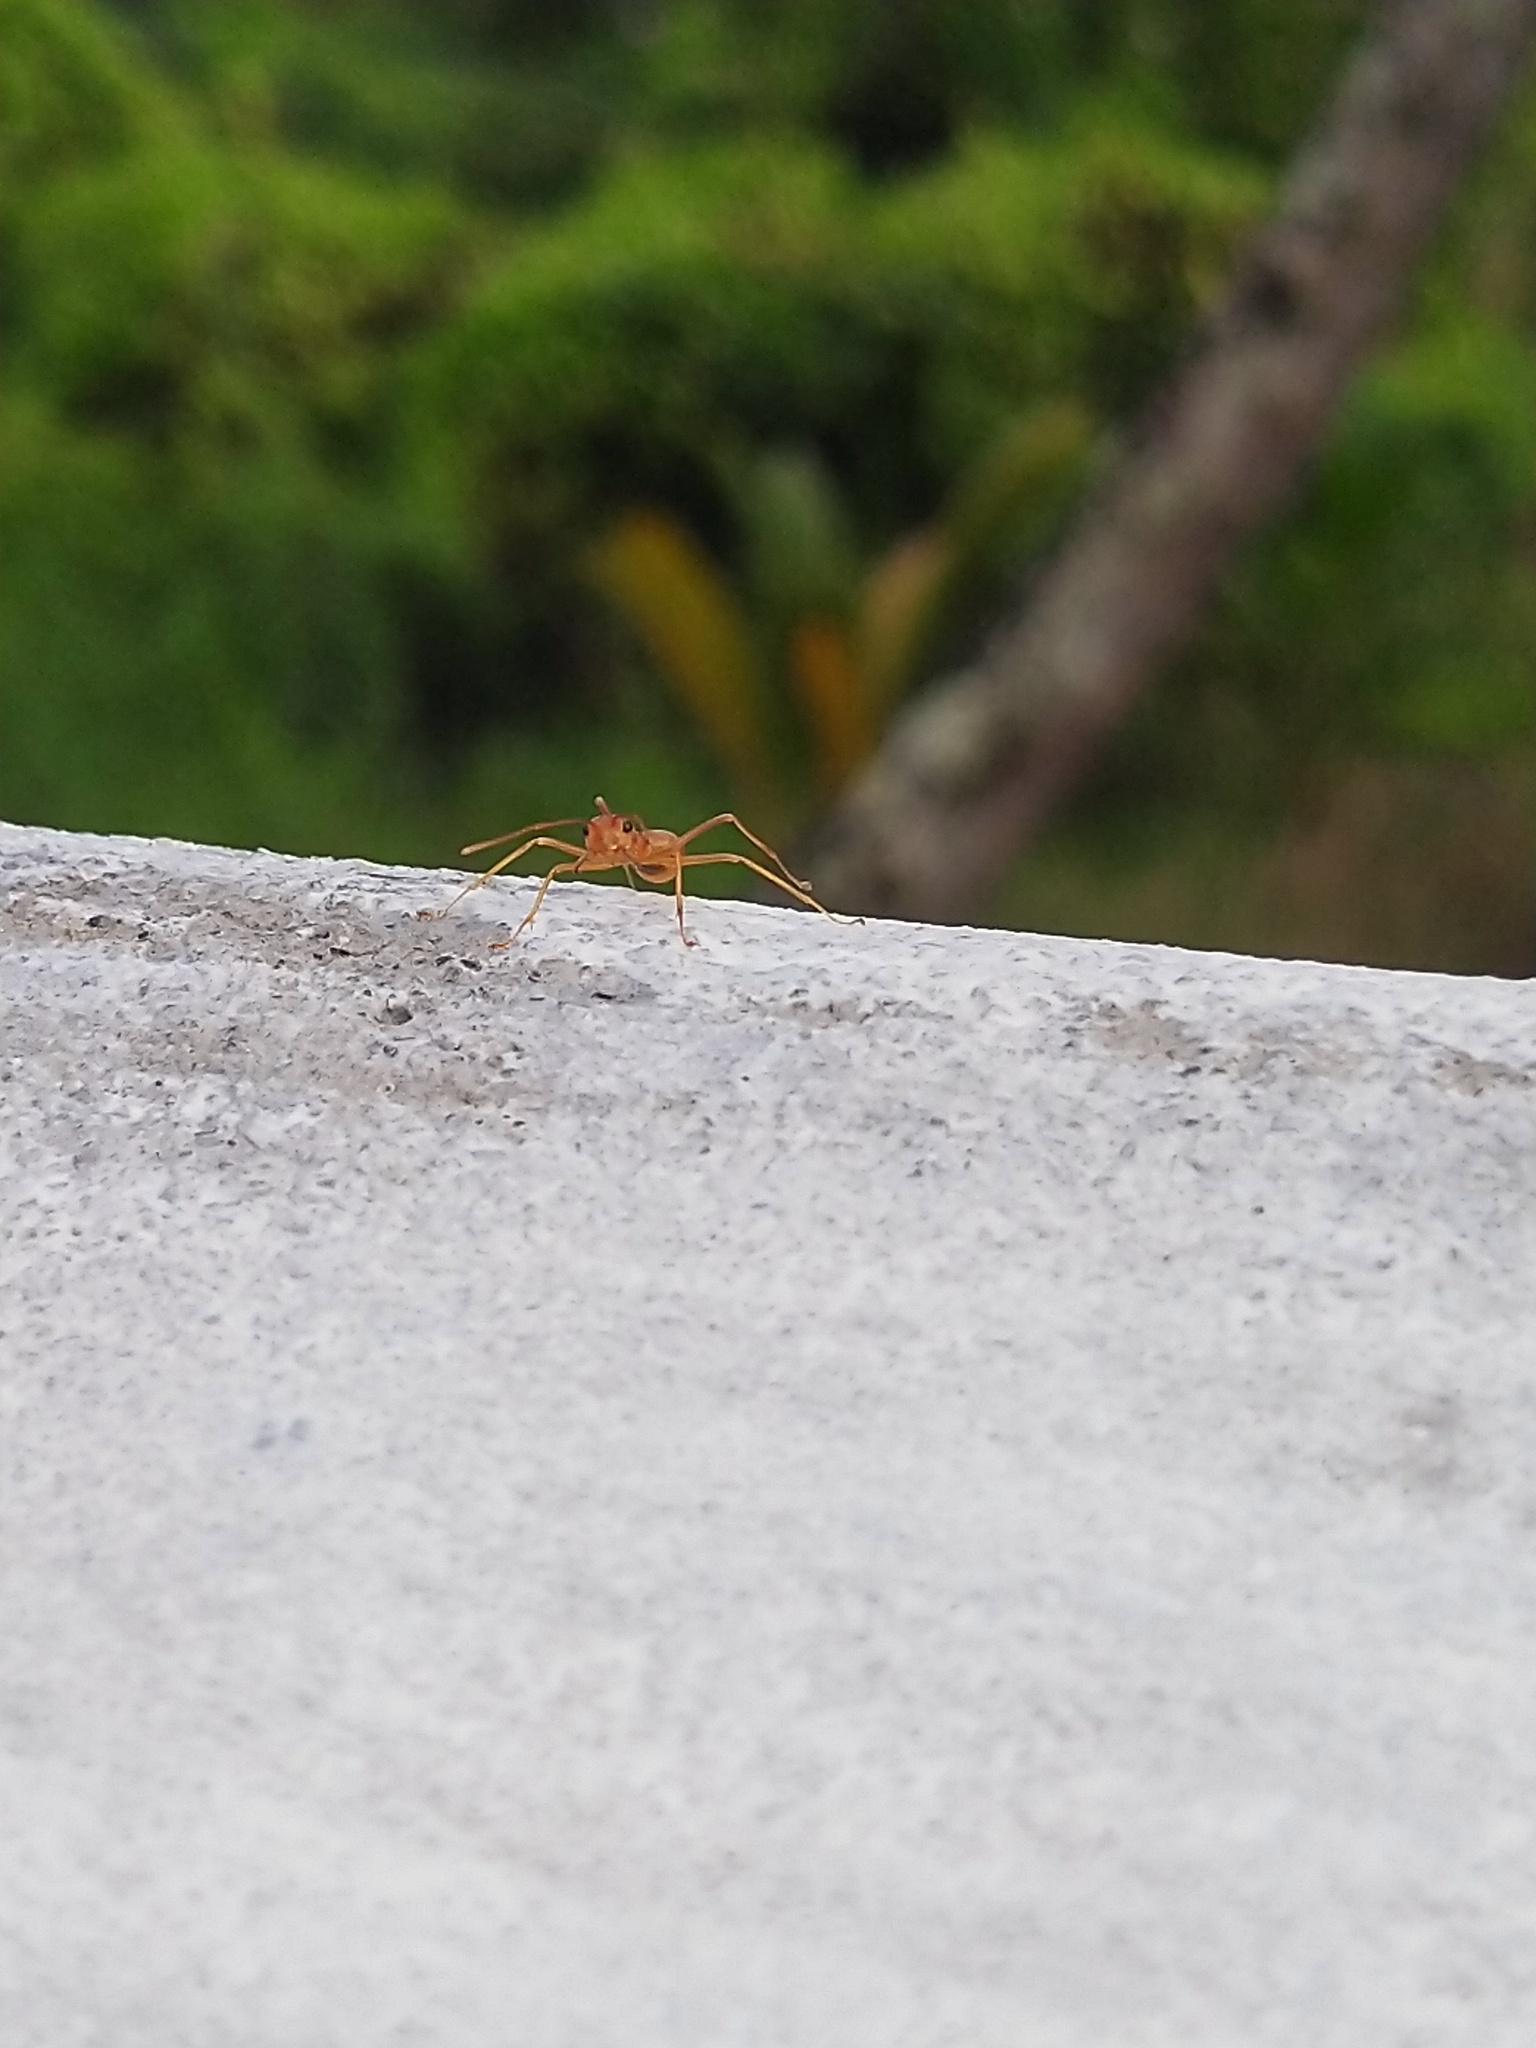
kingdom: Animalia
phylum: Arthropoda
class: Insecta
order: Hymenoptera
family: Formicidae
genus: Oecophylla
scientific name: Oecophylla smaragdina
